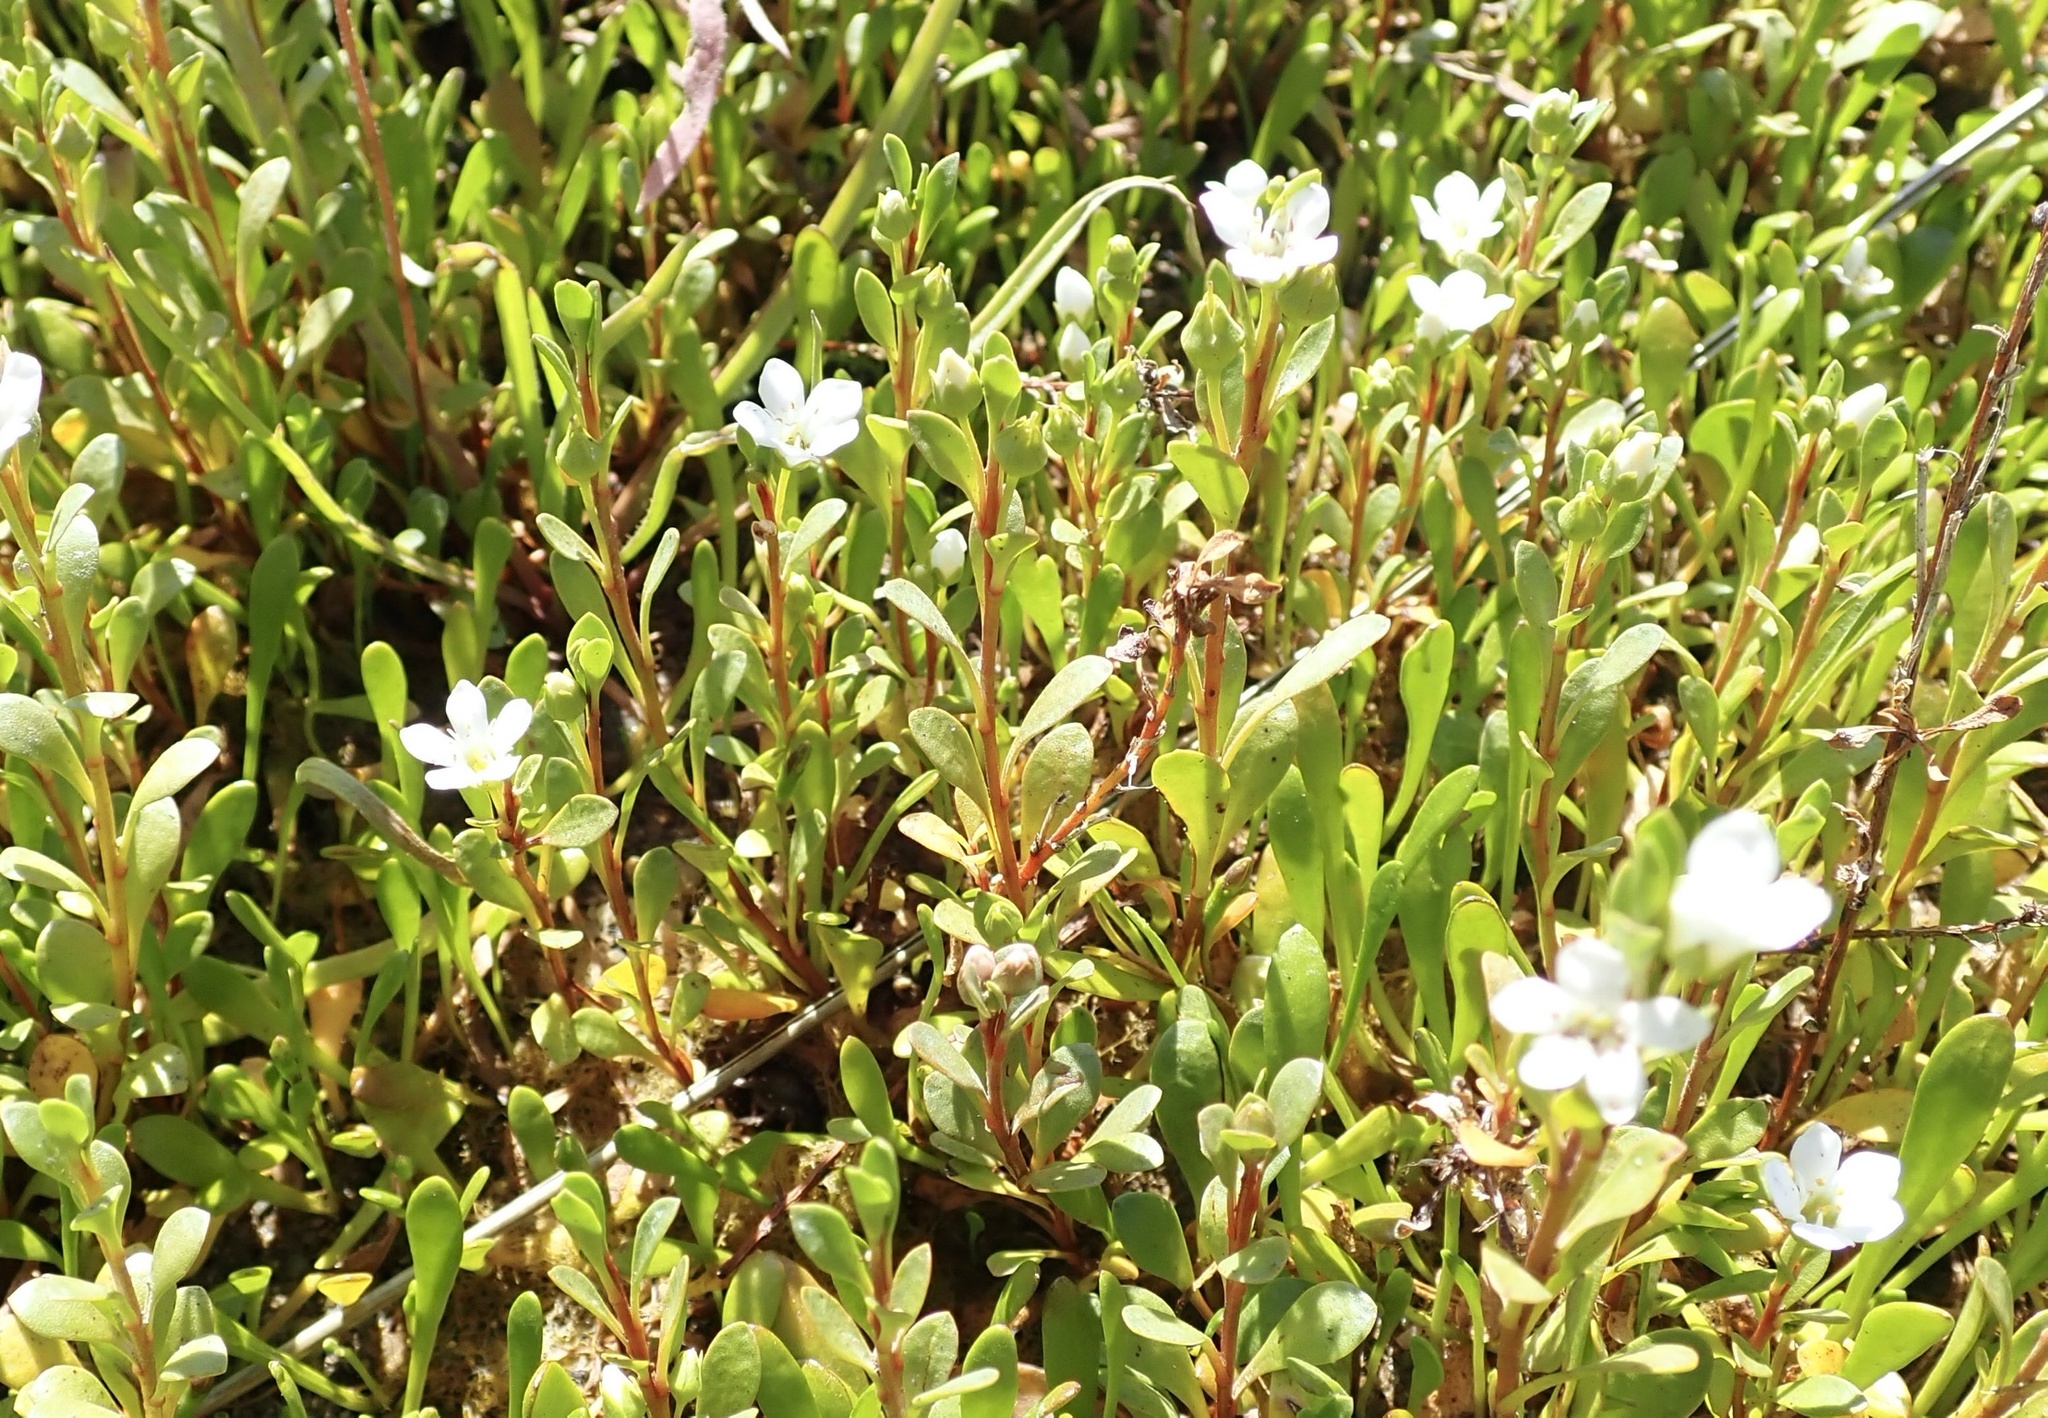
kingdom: Plantae
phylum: Tracheophyta
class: Magnoliopsida
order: Ericales
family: Primulaceae
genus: Samolus
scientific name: Samolus repens
